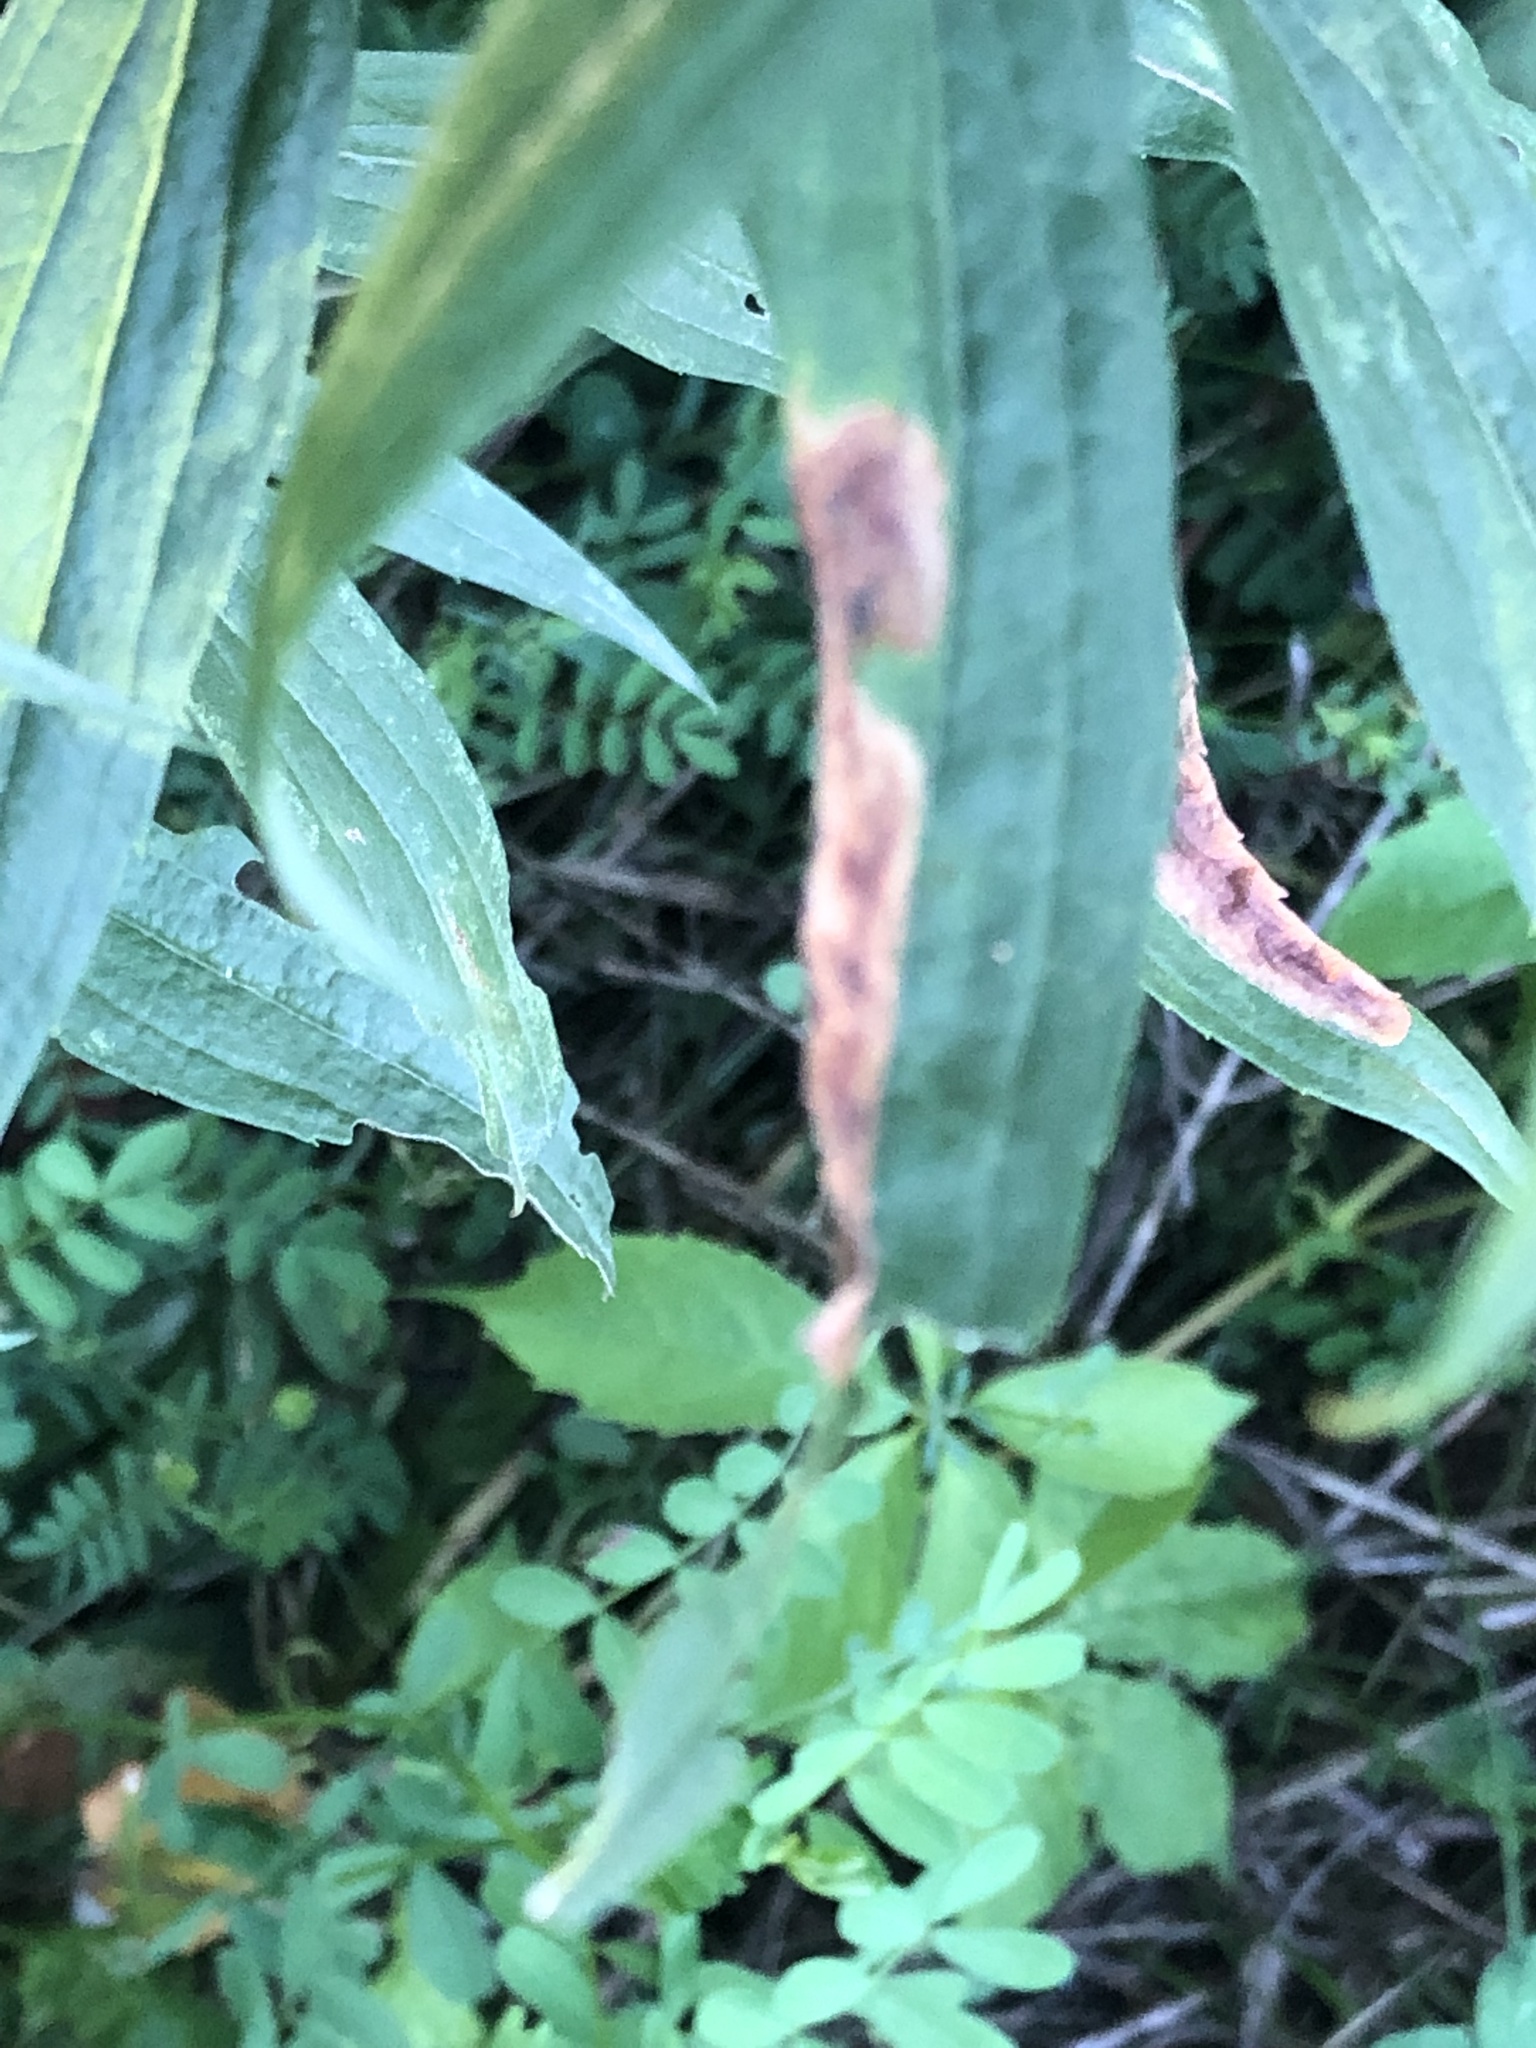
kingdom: Animalia
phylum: Arthropoda
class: Insecta
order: Diptera
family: Agromyzidae
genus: Nemorimyza
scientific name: Nemorimyza posticata
